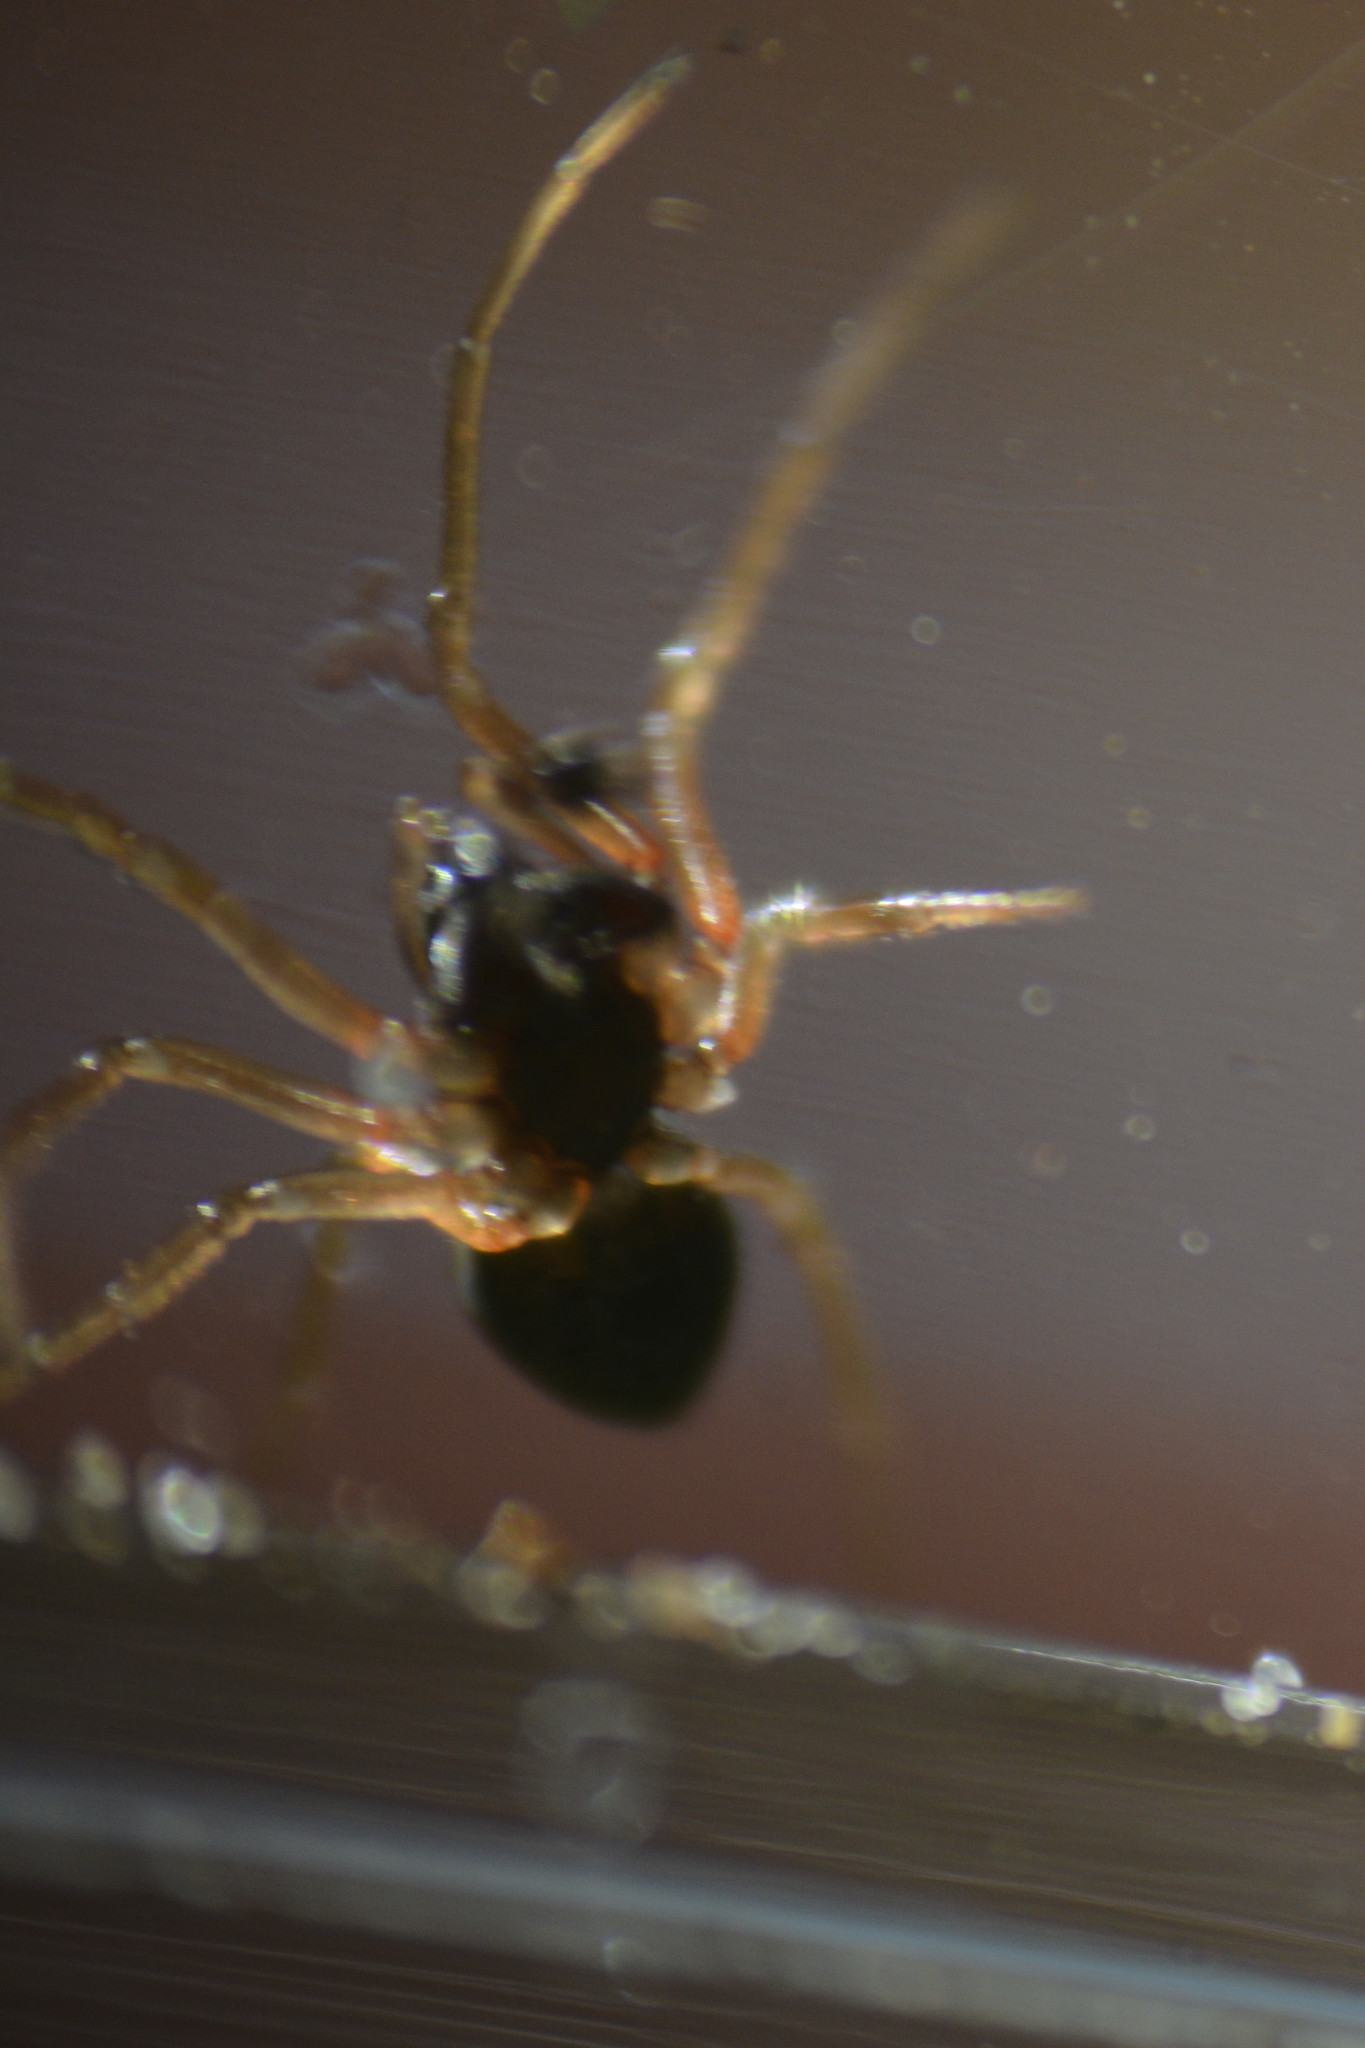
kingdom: Animalia
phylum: Arthropoda
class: Arachnida
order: Araneae
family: Tetragnathidae
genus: Pachygnatha
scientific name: Pachygnatha degeeri
